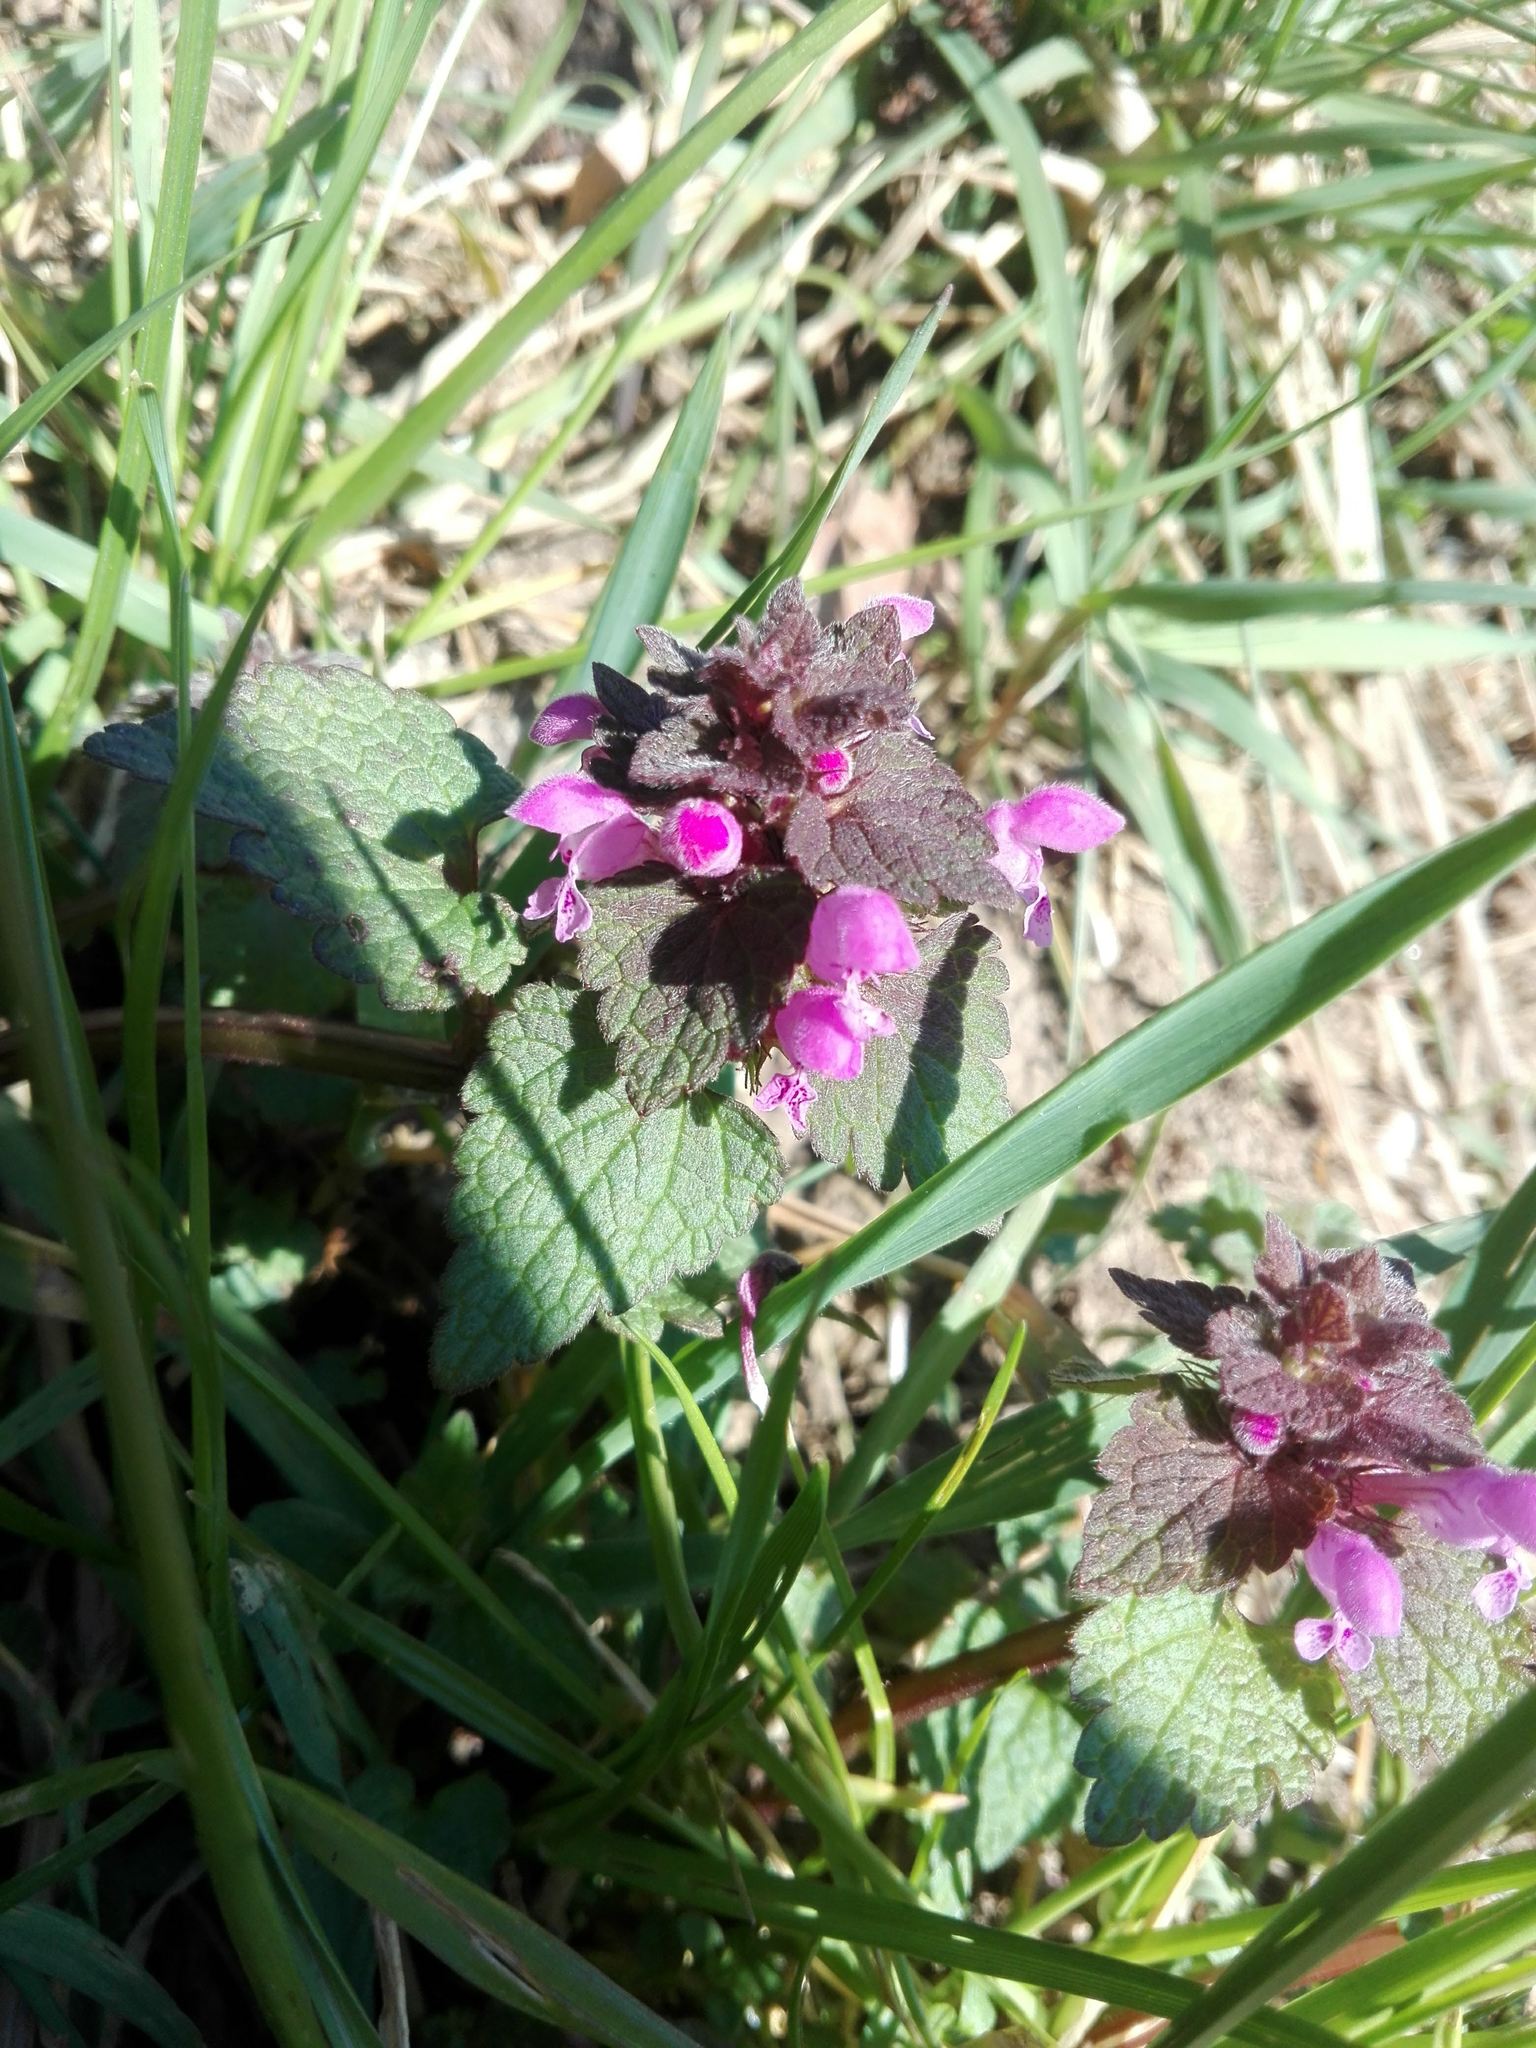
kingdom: Plantae
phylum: Tracheophyta
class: Magnoliopsida
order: Lamiales
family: Lamiaceae
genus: Lamium
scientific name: Lamium purpureum
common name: Red dead-nettle
